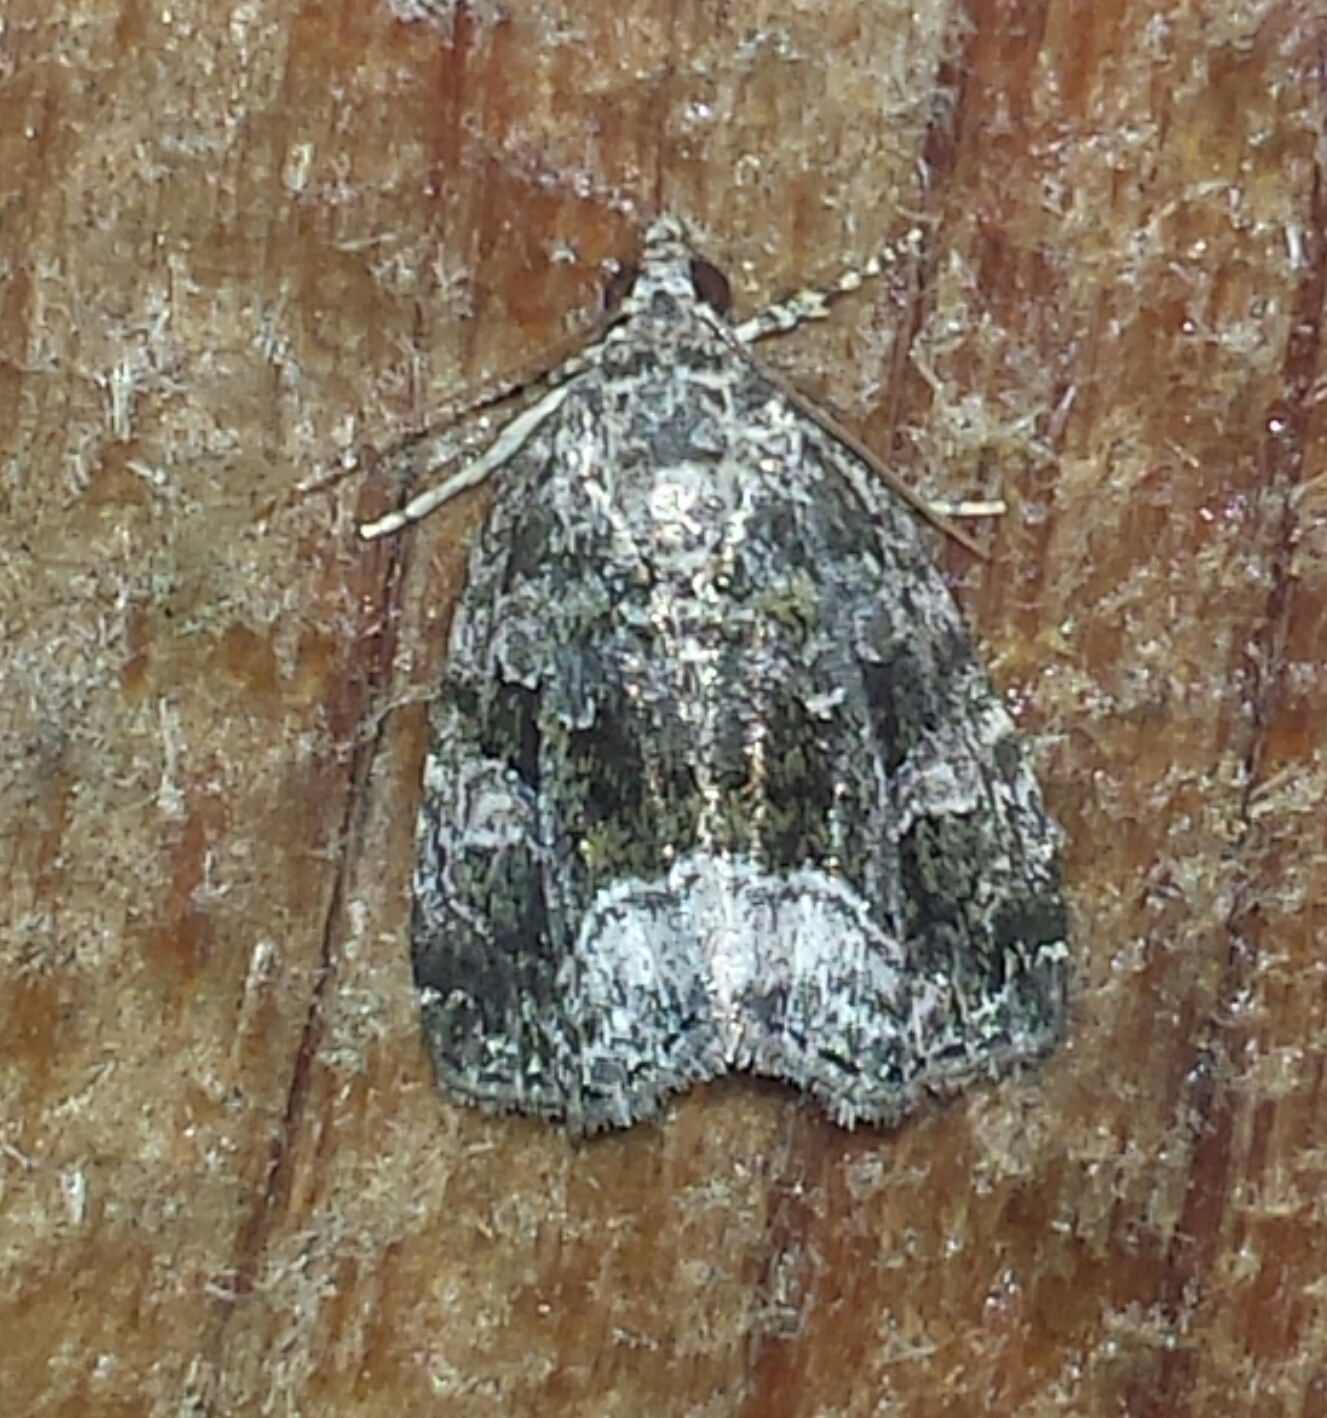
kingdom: Animalia
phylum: Arthropoda
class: Insecta
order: Lepidoptera
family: Noctuidae
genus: Protodeltote
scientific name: Protodeltote muscosula
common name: Large mossy glyph
